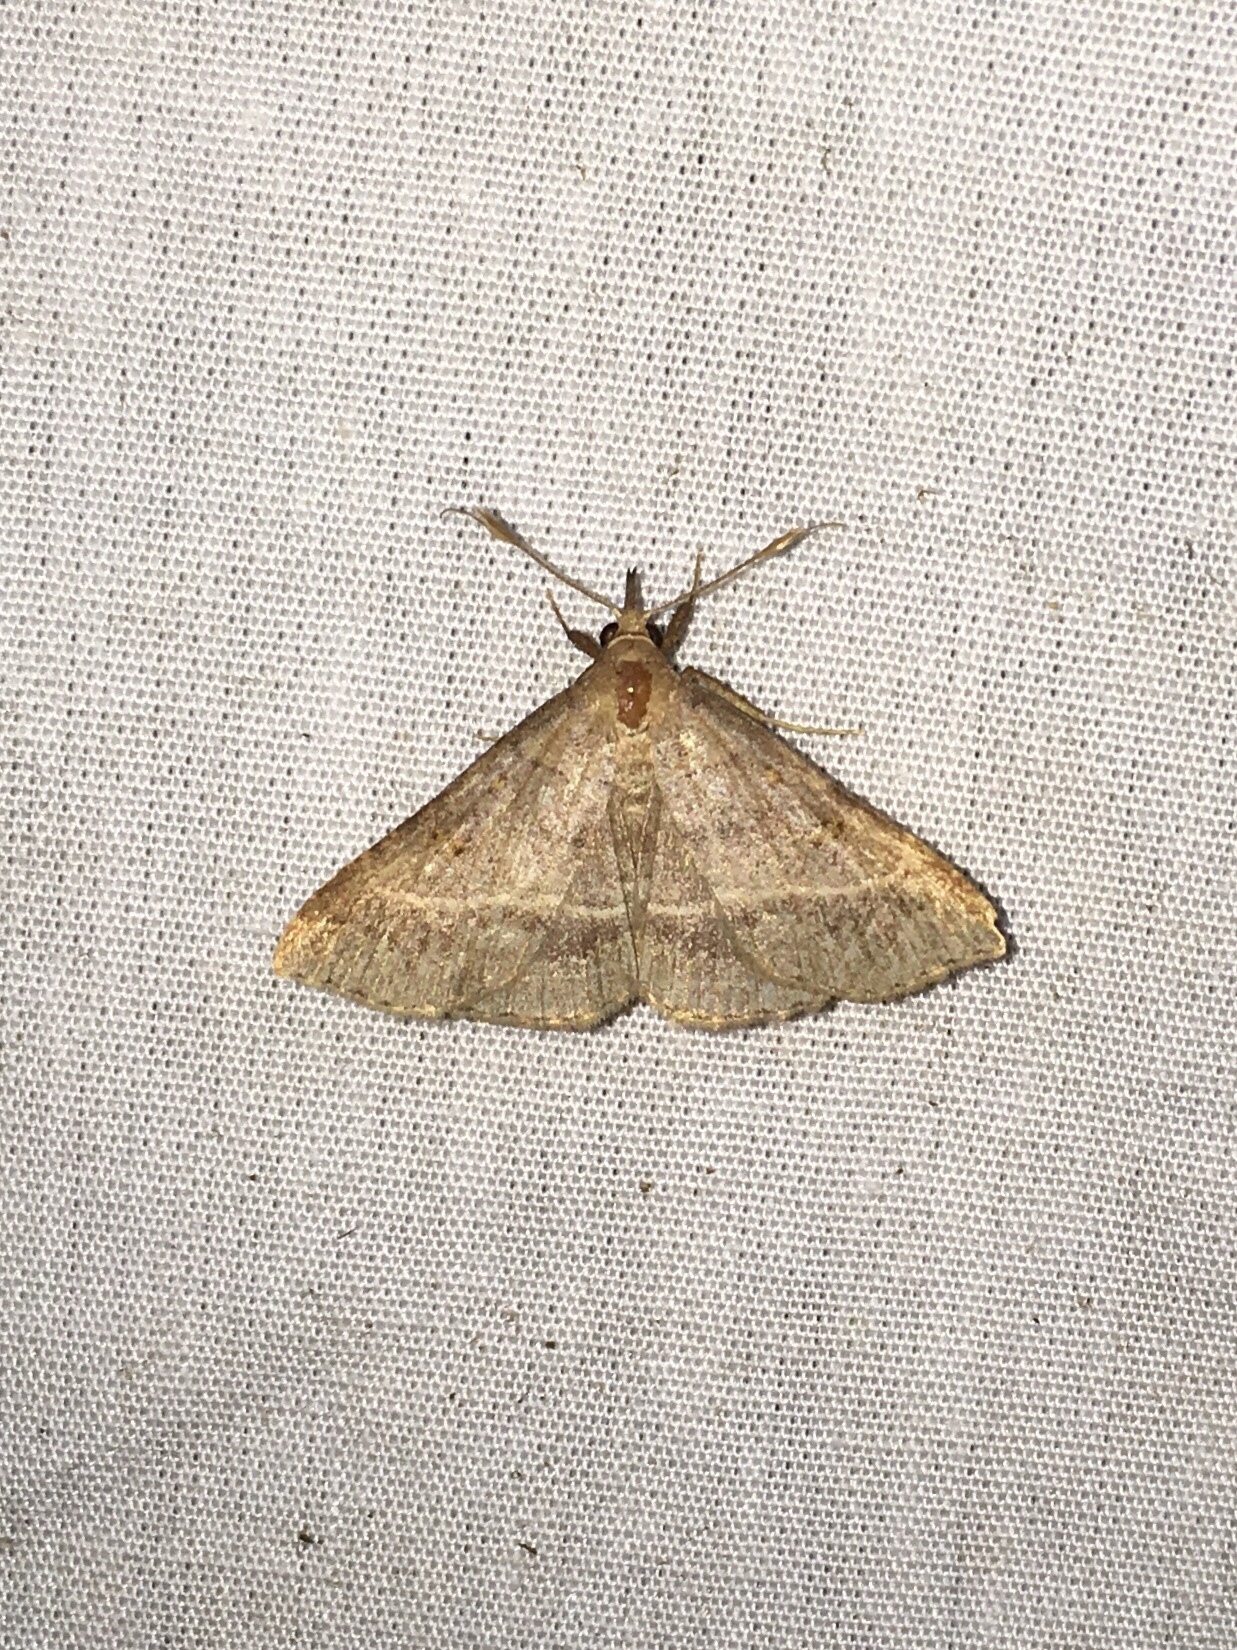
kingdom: Animalia
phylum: Arthropoda
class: Insecta
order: Lepidoptera
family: Erebidae
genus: Renia
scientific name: Renia flavipunctalis
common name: Yellow-spotted renia moth
